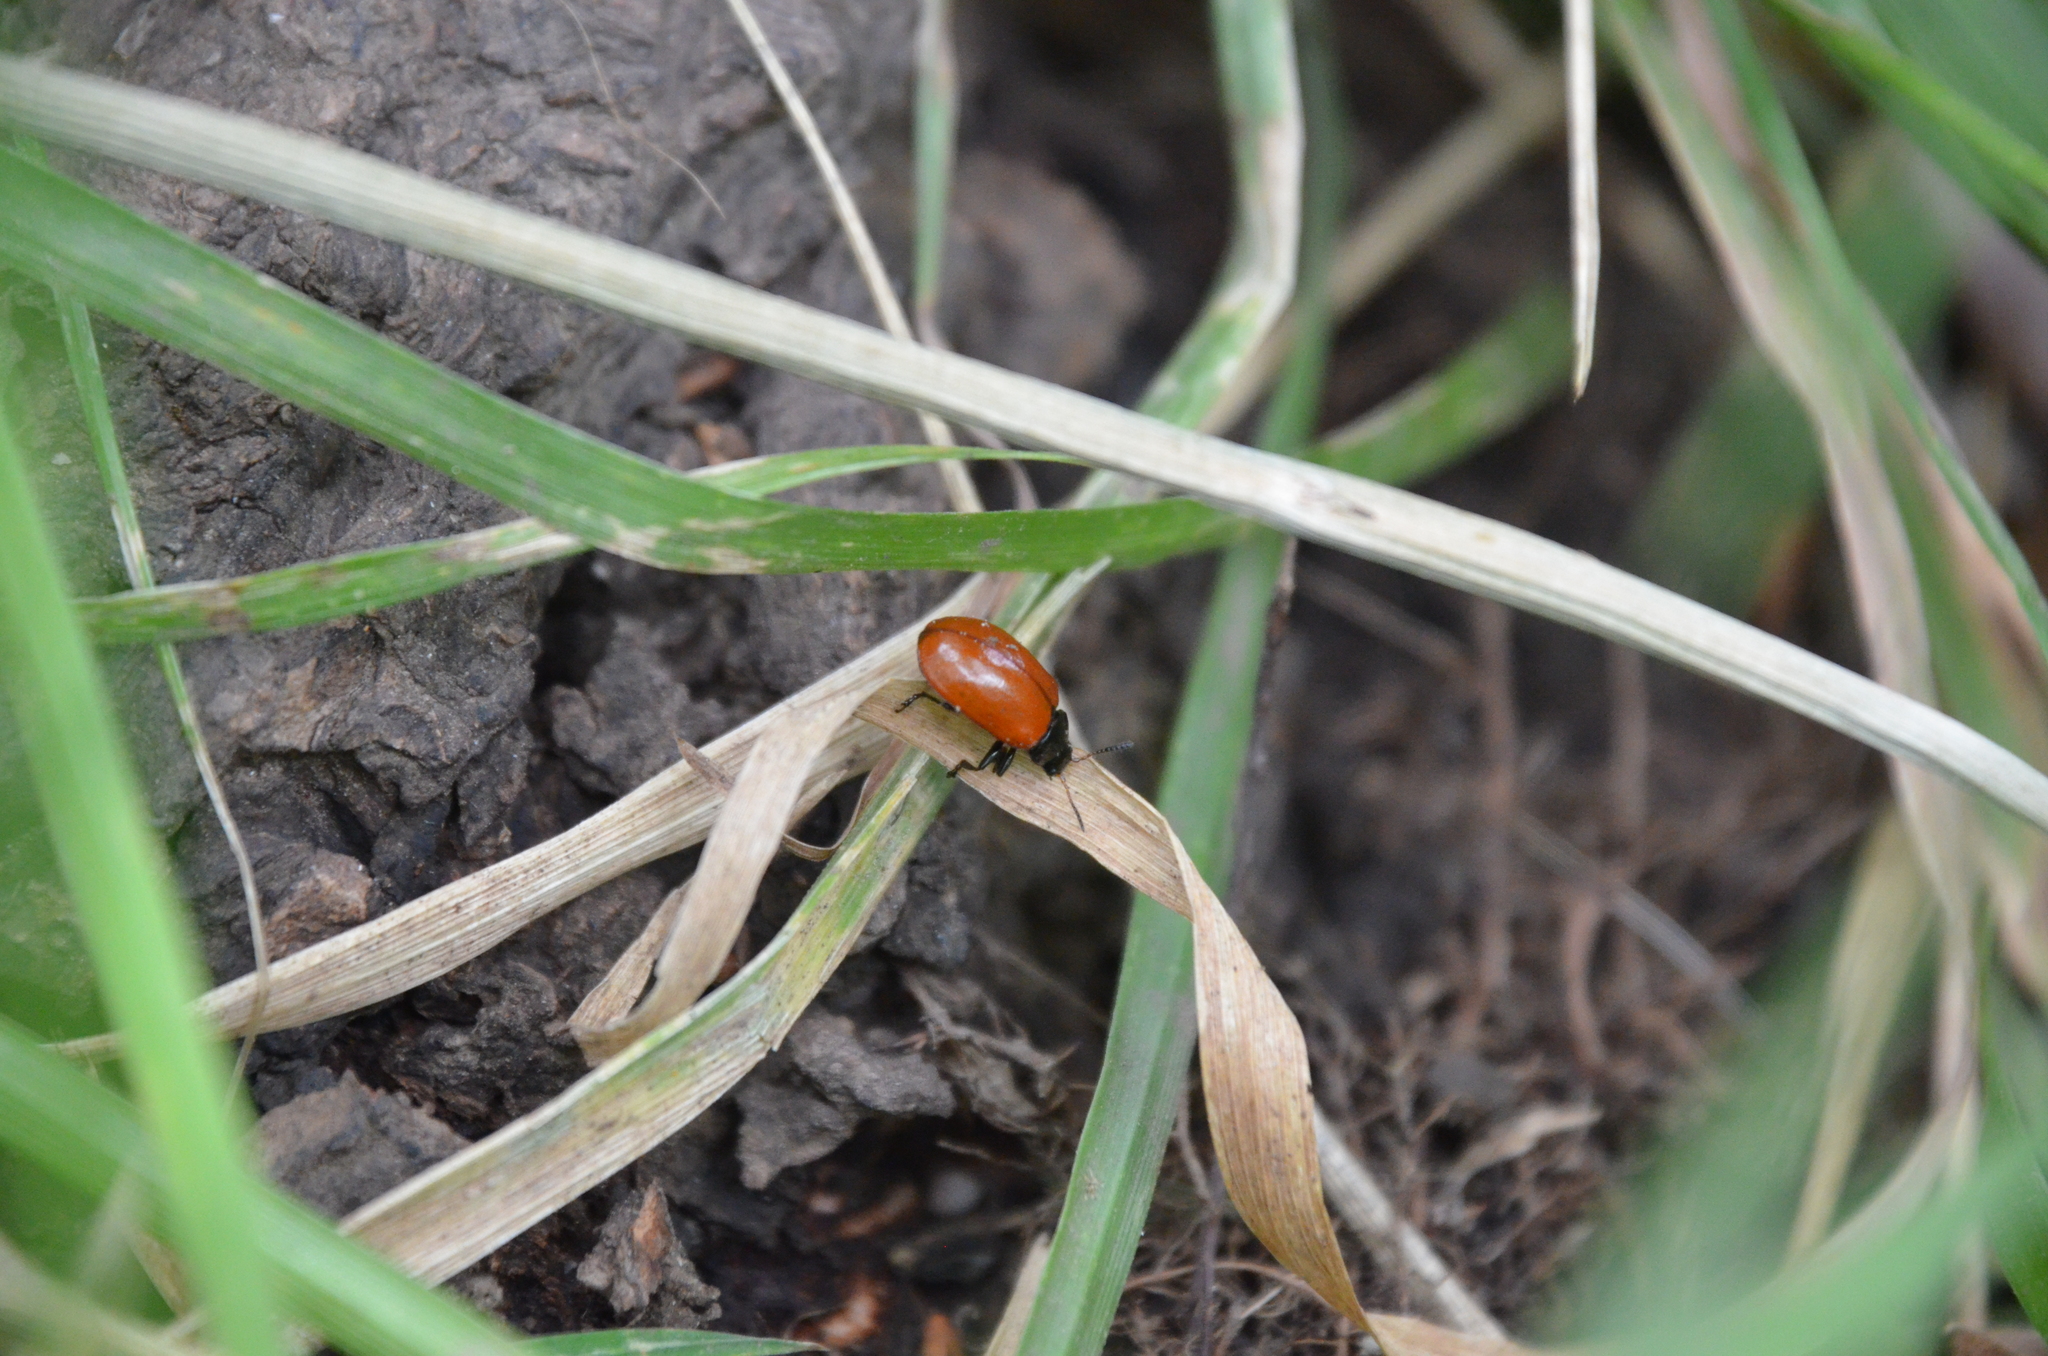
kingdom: Animalia
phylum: Arthropoda
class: Insecta
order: Coleoptera
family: Chrysomelidae
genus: Plagiodera
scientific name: Plagiodera
